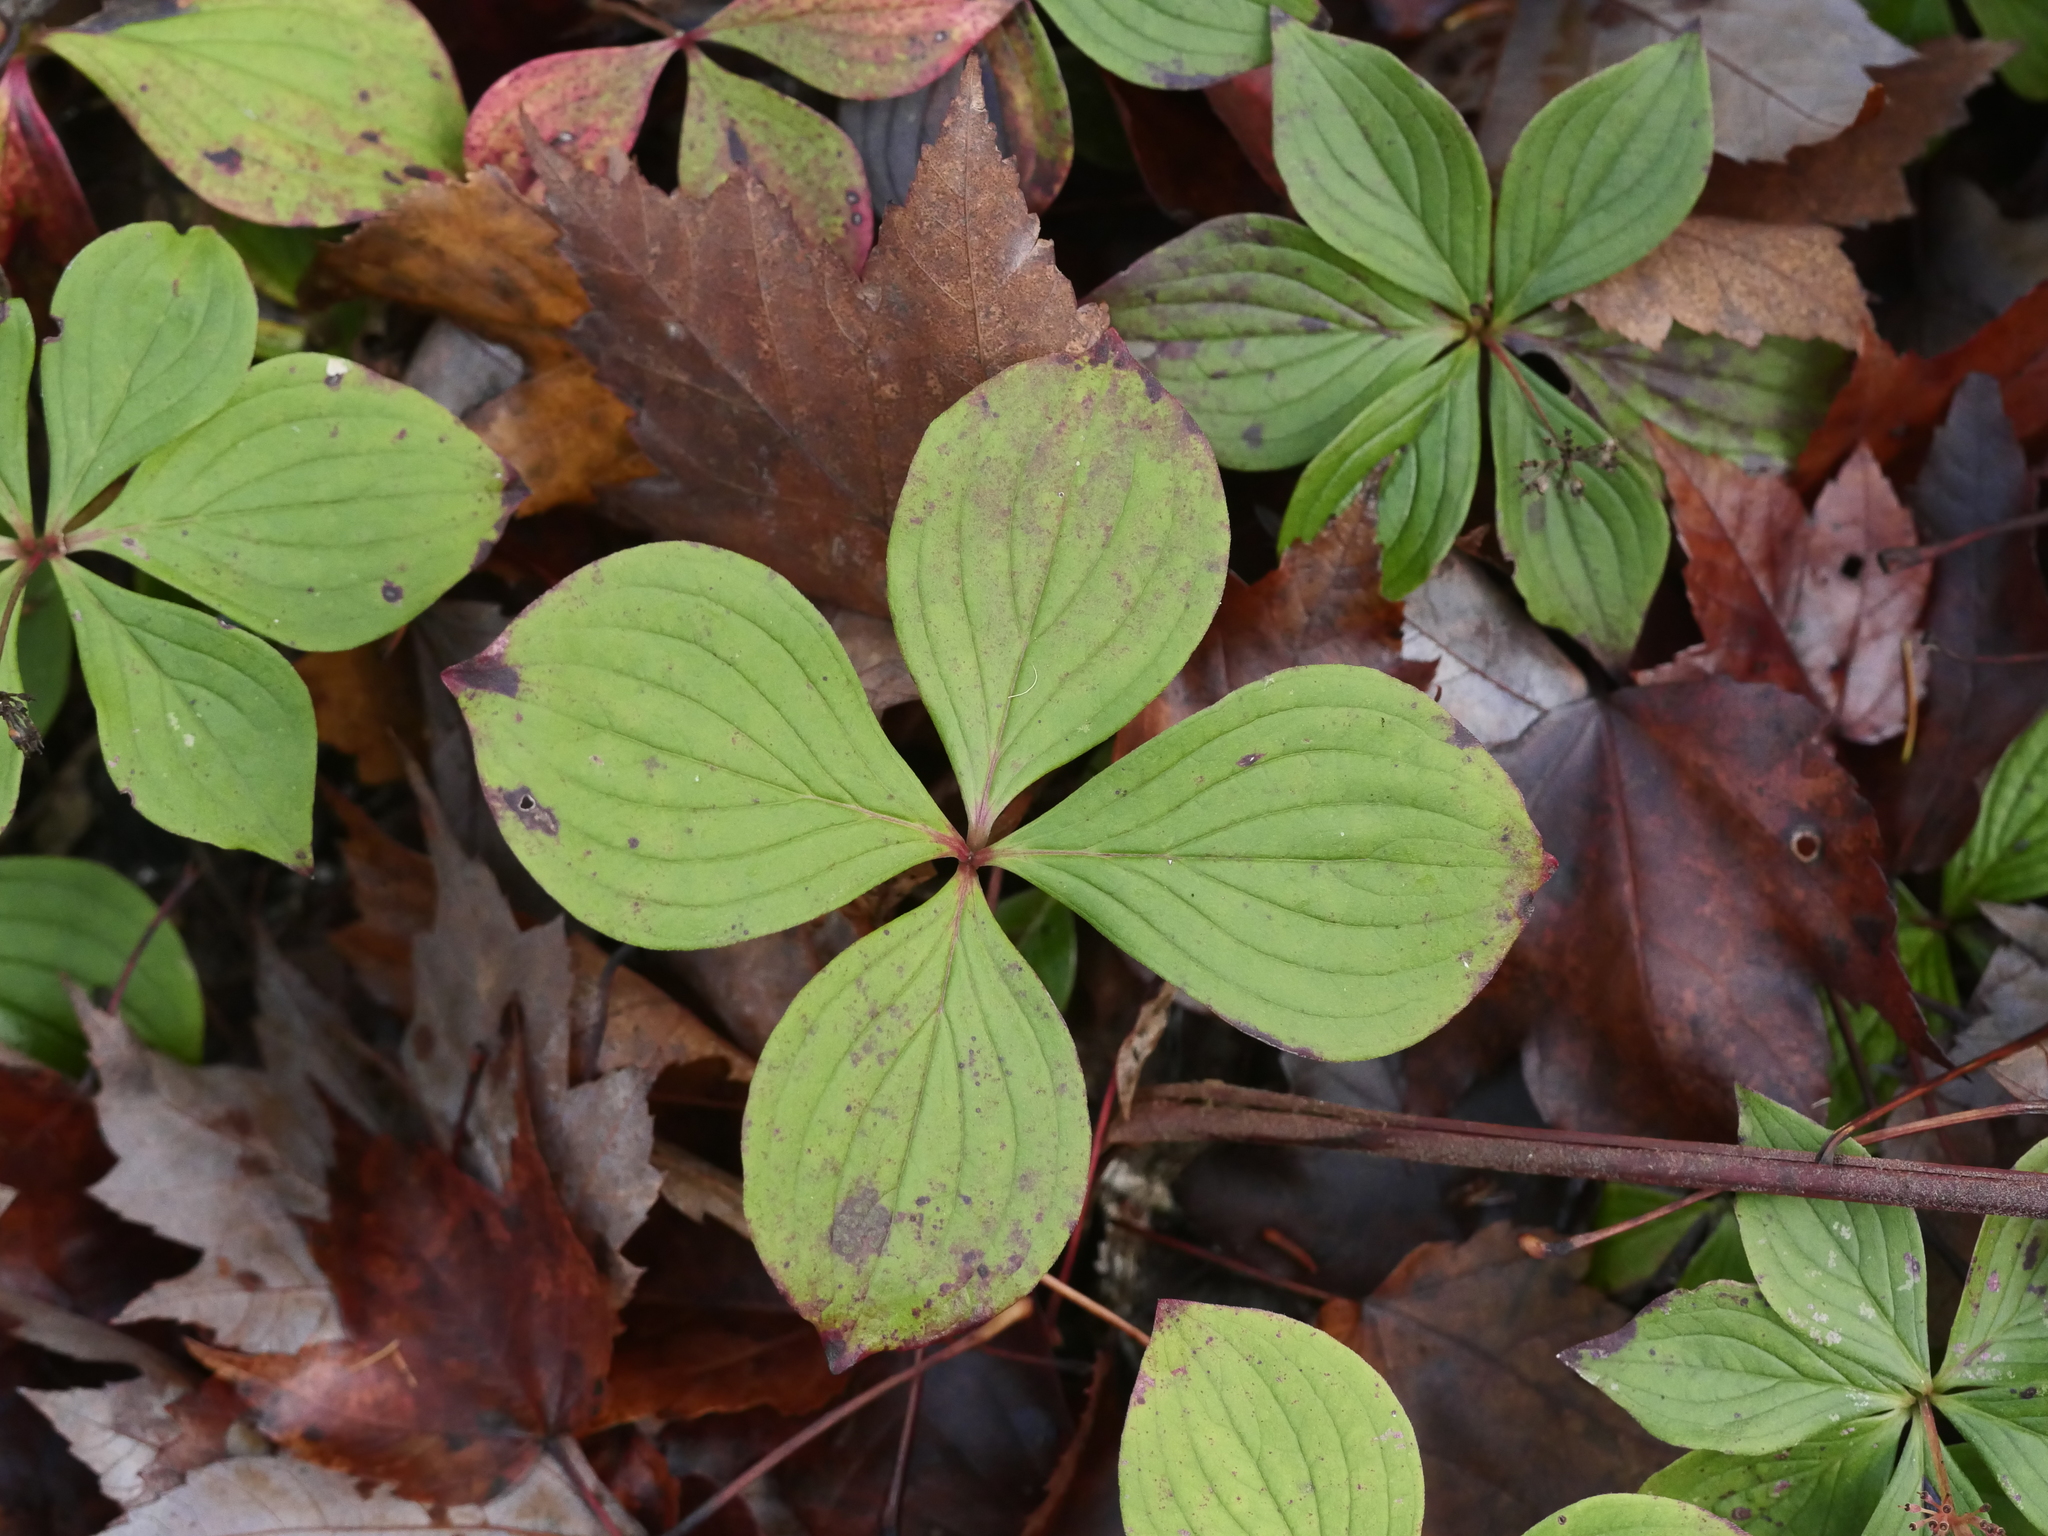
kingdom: Plantae
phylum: Tracheophyta
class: Magnoliopsida
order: Cornales
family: Cornaceae
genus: Cornus
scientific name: Cornus canadensis
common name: Creeping dogwood
